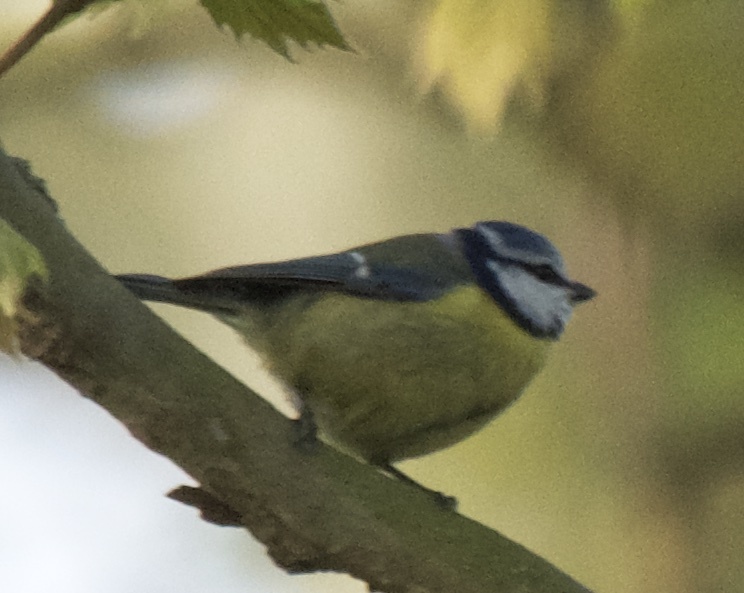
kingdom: Animalia
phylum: Chordata
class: Aves
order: Passeriformes
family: Paridae
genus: Cyanistes
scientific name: Cyanistes caeruleus
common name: Eurasian blue tit
